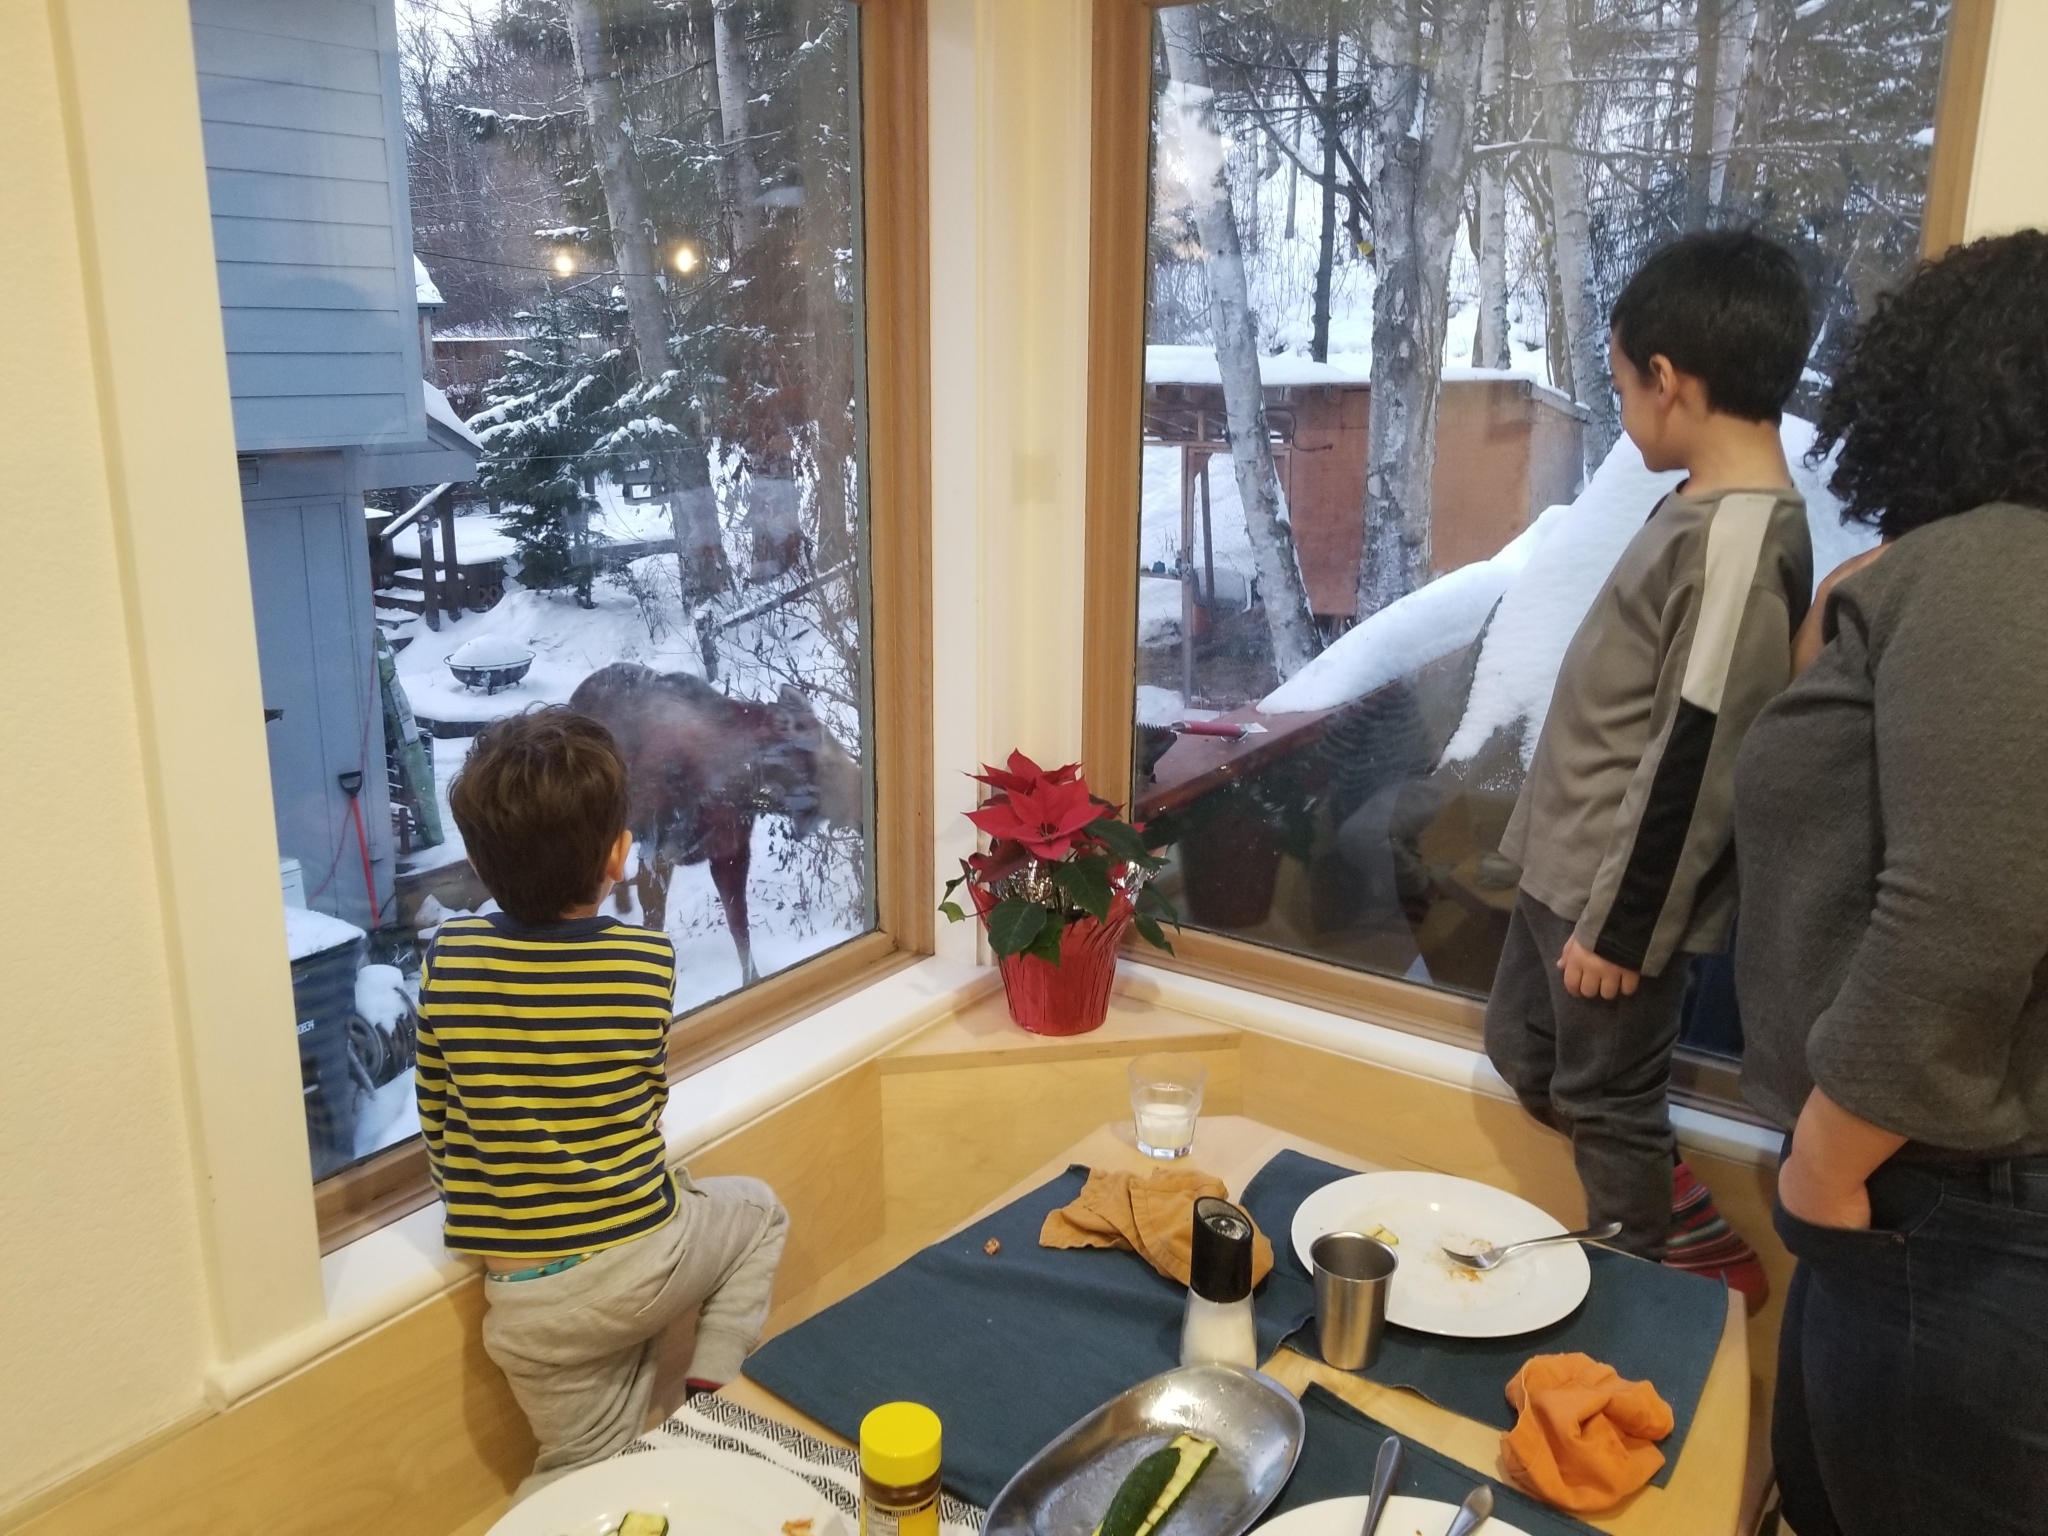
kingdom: Animalia
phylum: Chordata
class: Mammalia
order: Artiodactyla
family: Cervidae
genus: Alces
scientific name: Alces alces
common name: Moose
